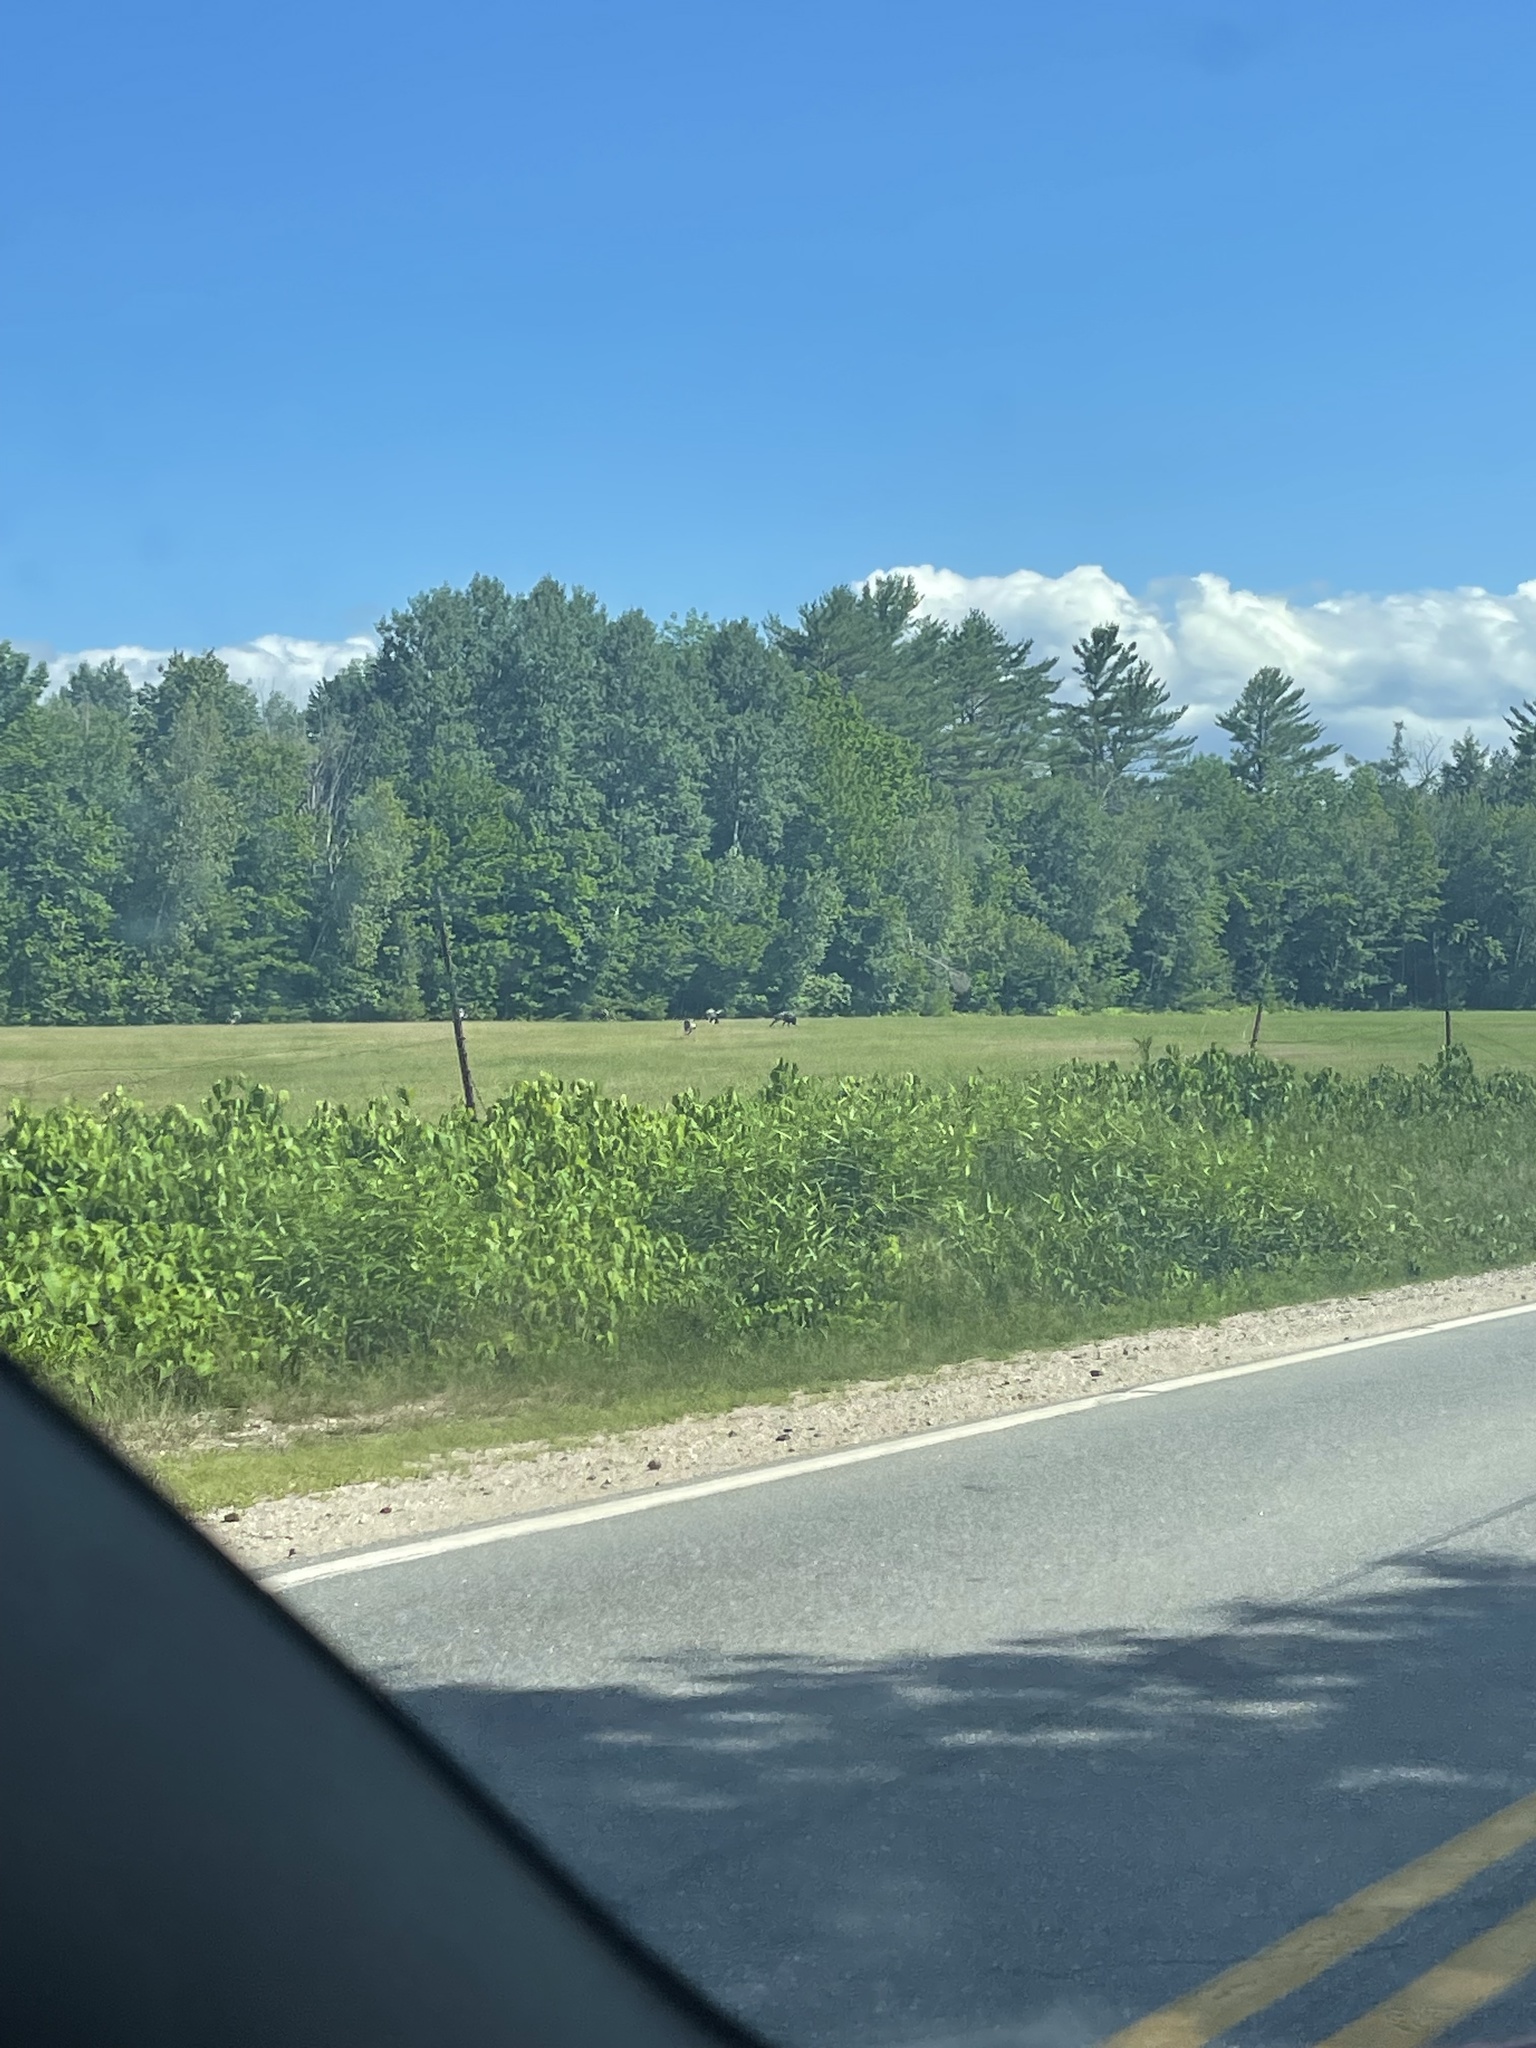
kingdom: Animalia
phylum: Chordata
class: Aves
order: Galliformes
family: Phasianidae
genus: Meleagris
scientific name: Meleagris gallopavo
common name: Wild turkey
